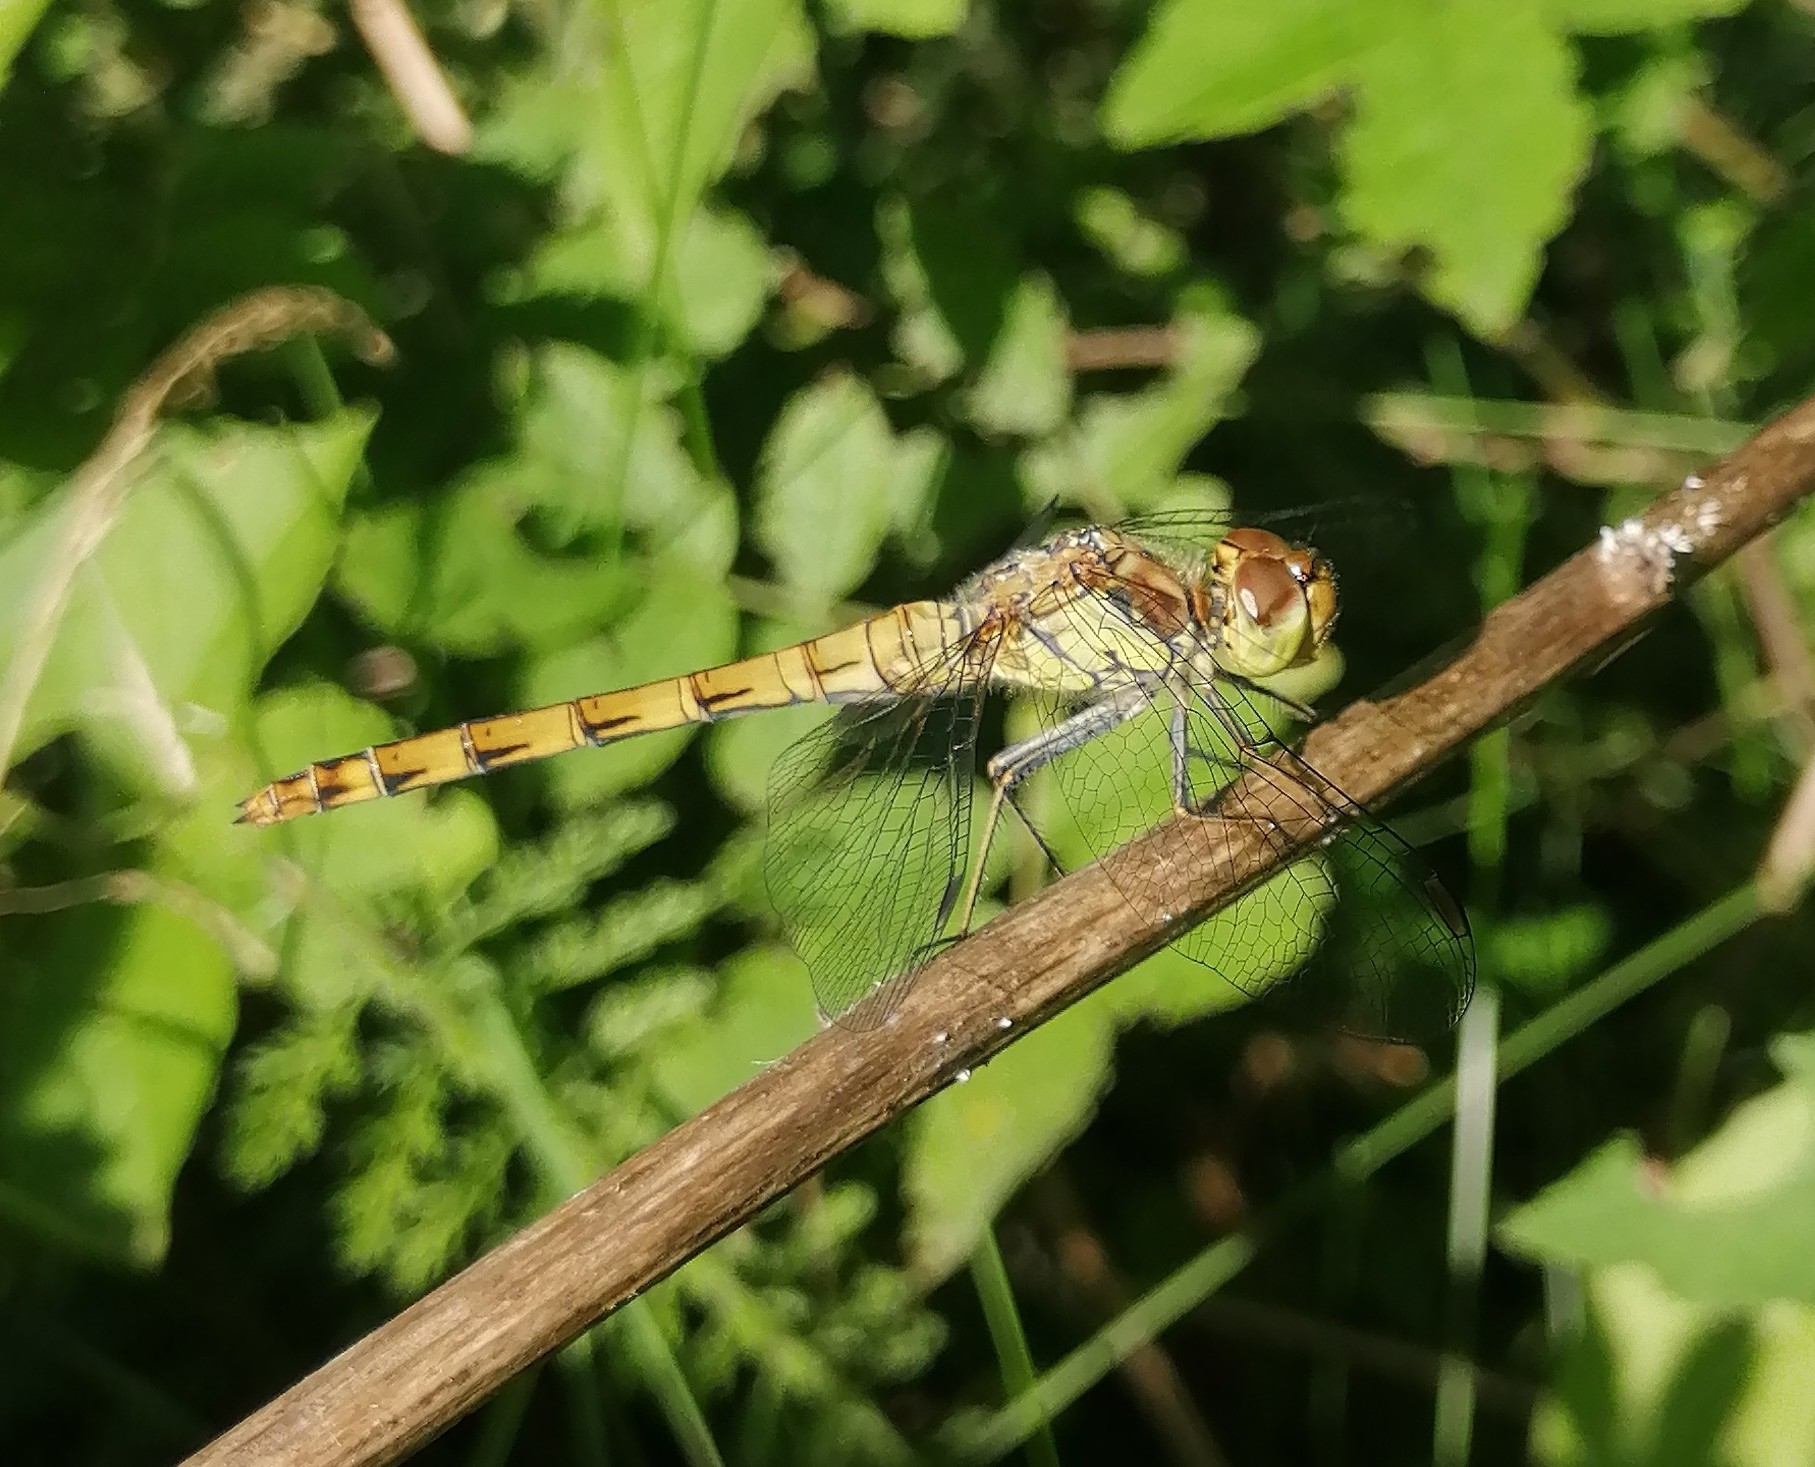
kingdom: Animalia
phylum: Arthropoda
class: Insecta
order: Odonata
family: Libellulidae
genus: Sympetrum
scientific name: Sympetrum striolatum
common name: Common darter
